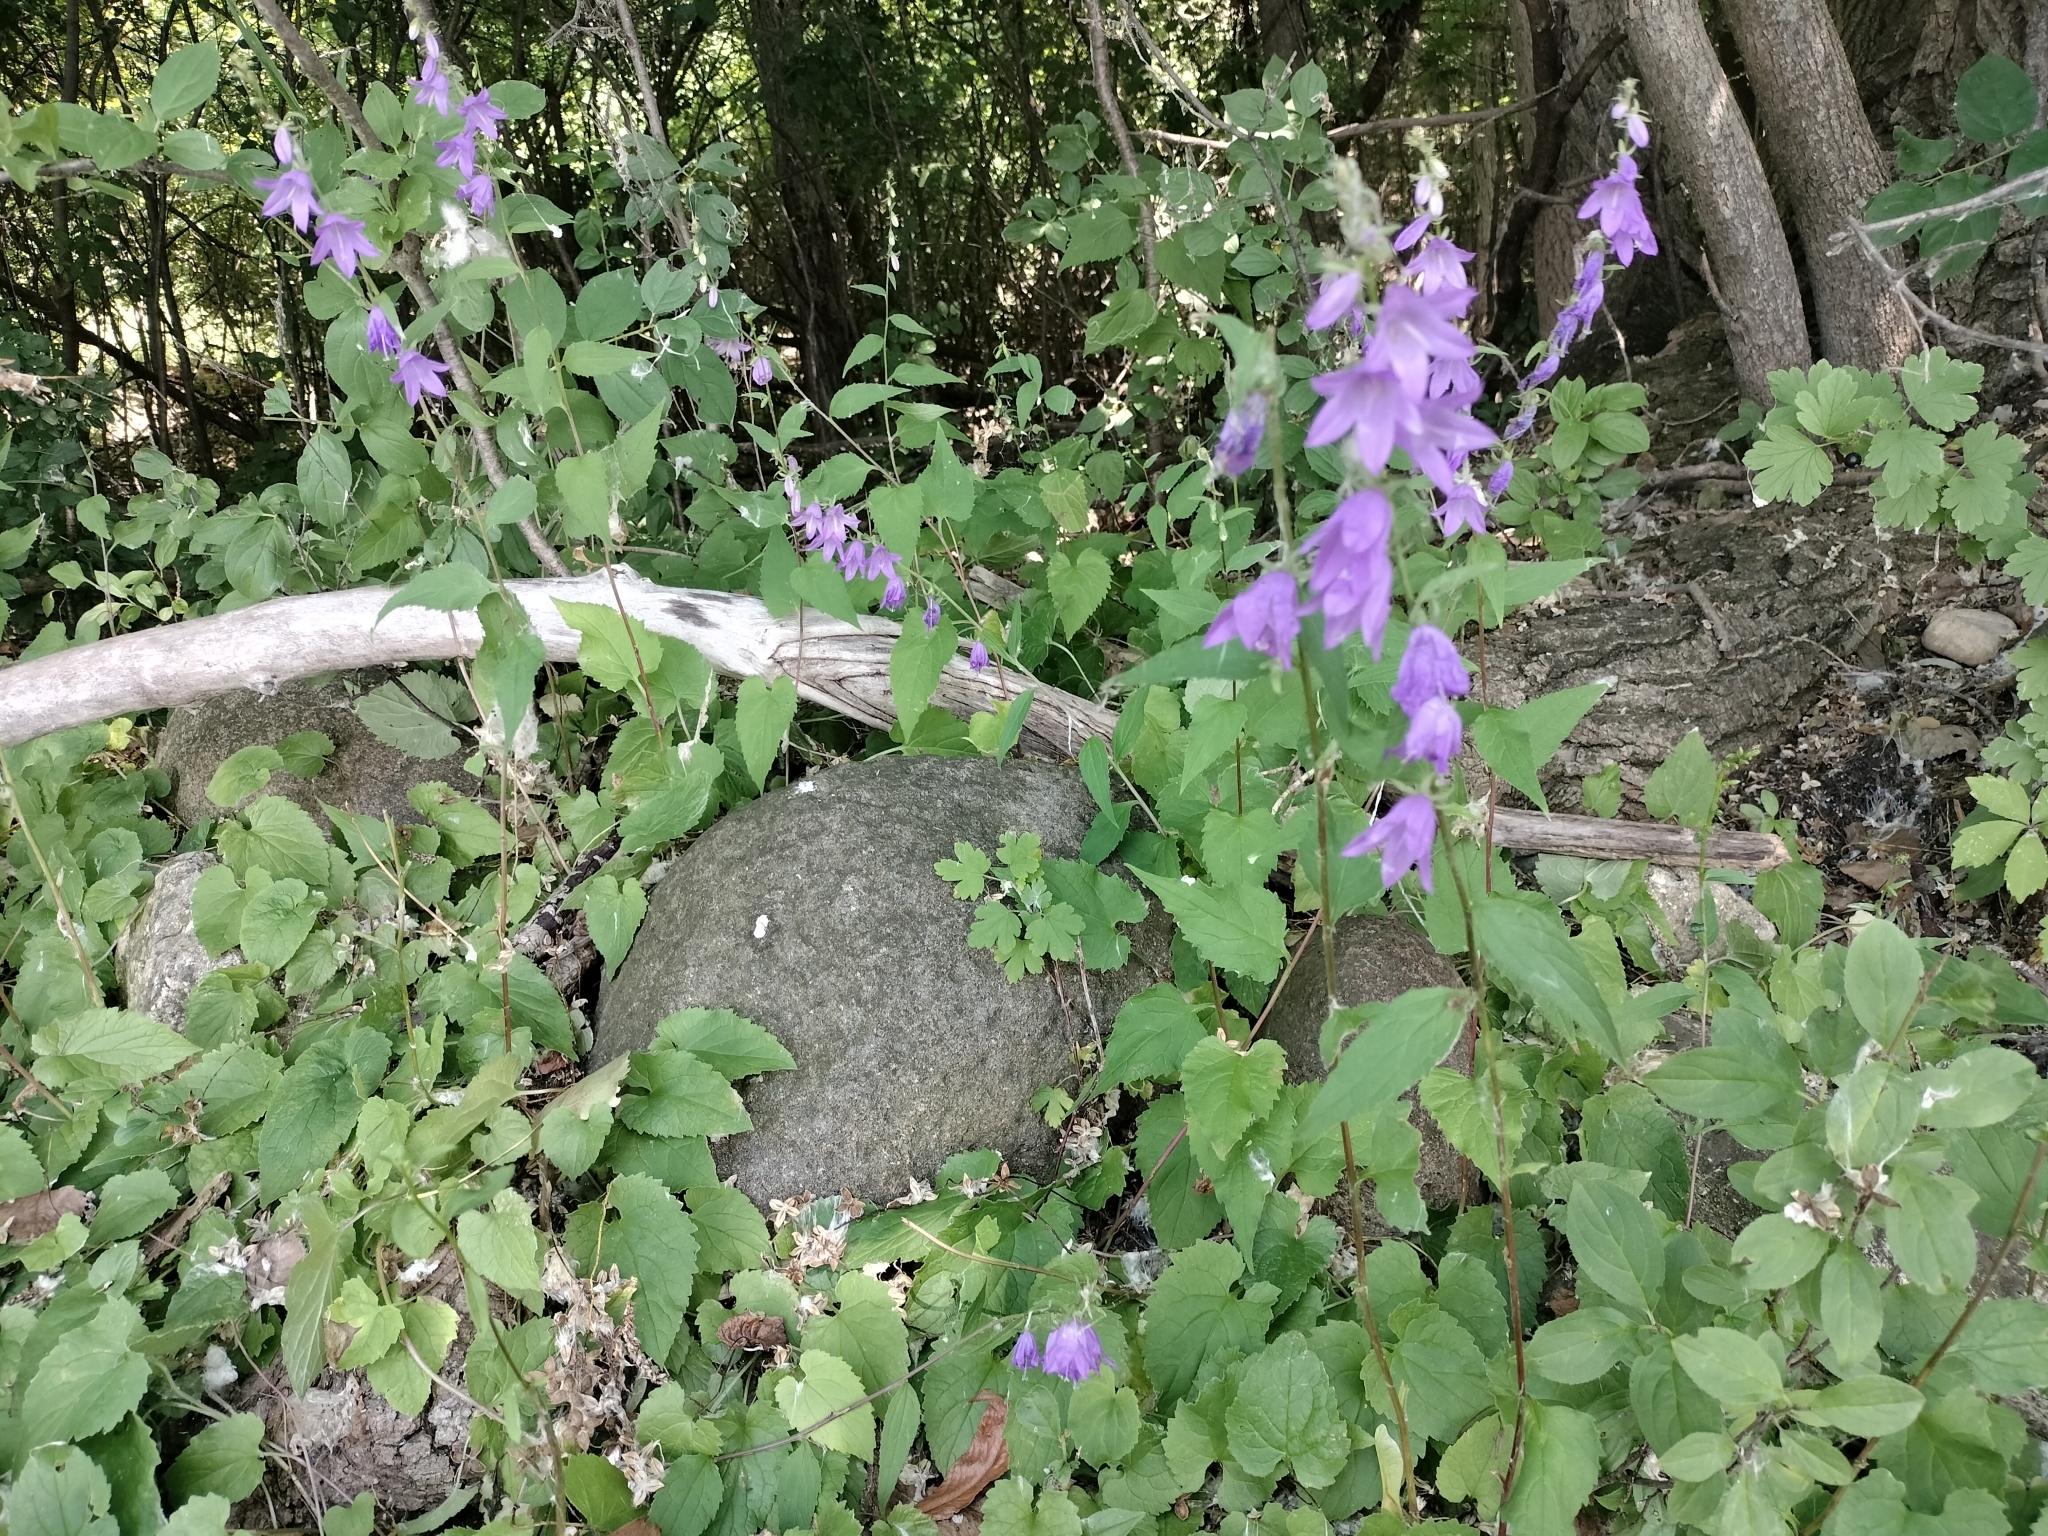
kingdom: Plantae
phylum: Tracheophyta
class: Magnoliopsida
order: Asterales
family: Campanulaceae
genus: Campanula
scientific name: Campanula rapunculoides
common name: Creeping bellflower
